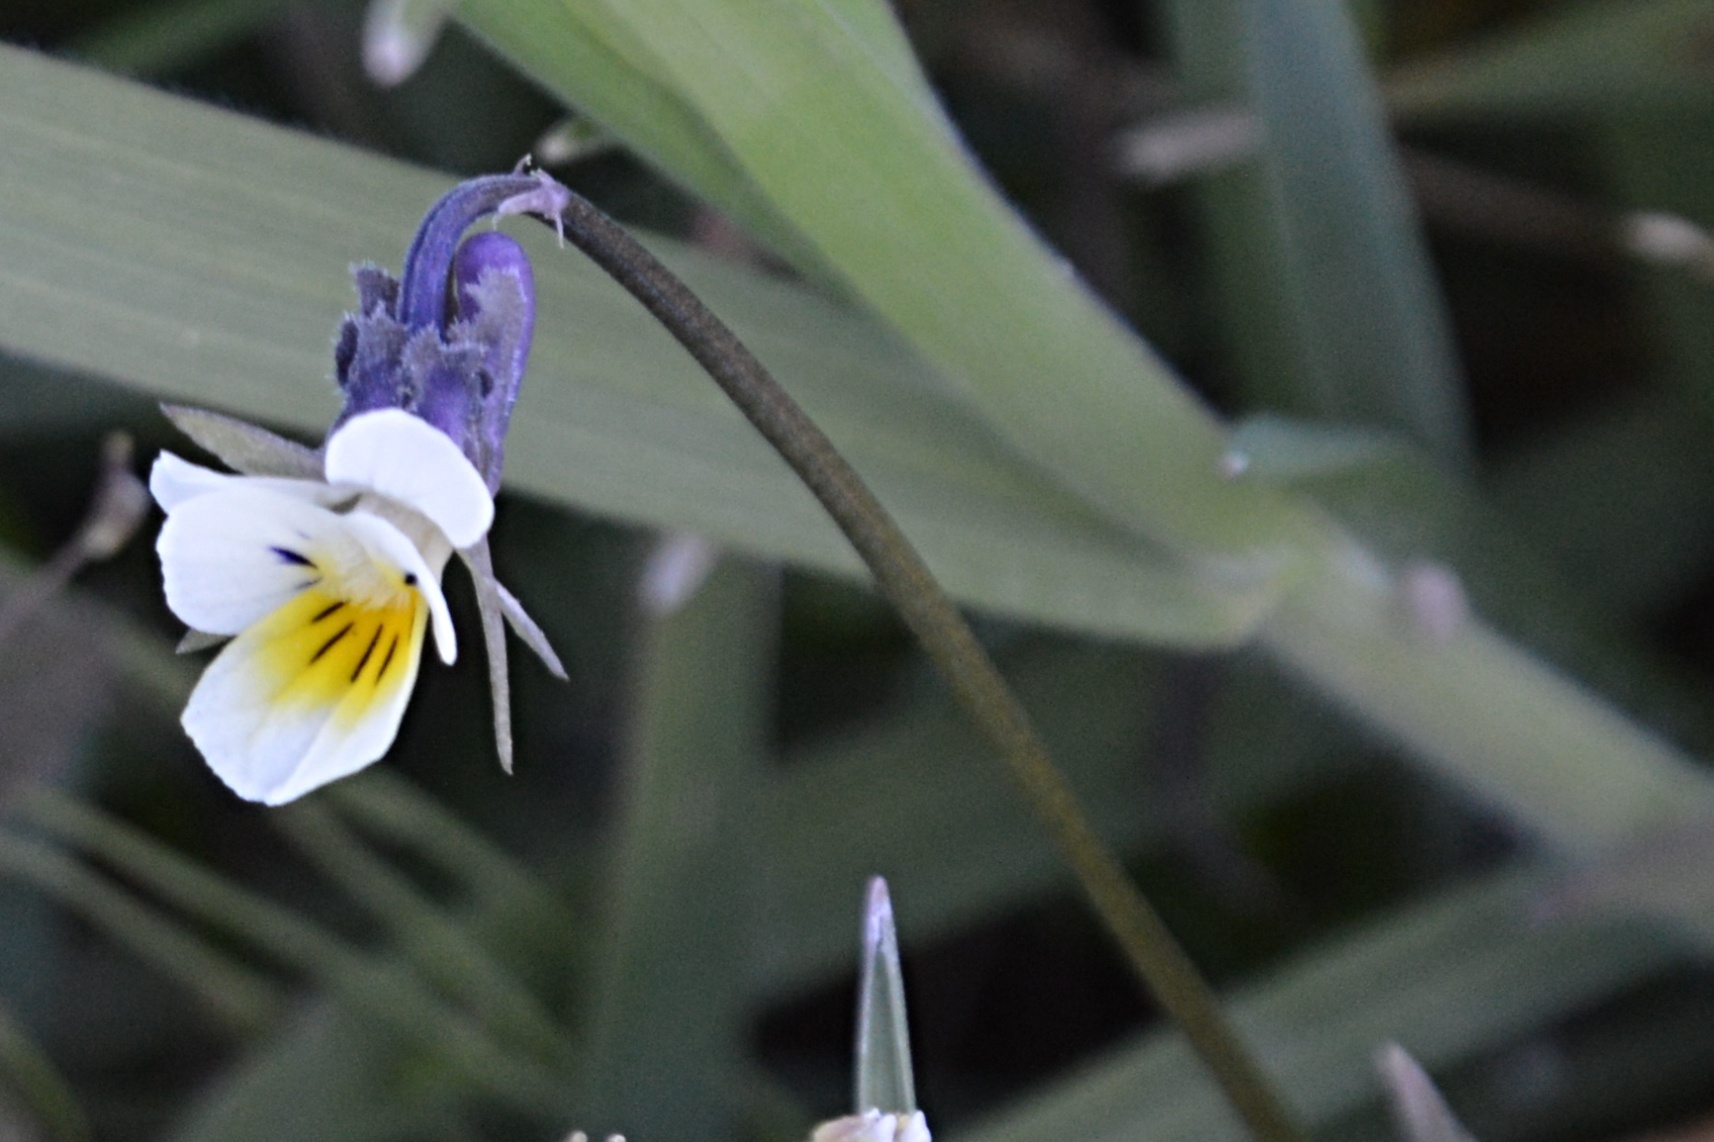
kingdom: Plantae
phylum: Tracheophyta
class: Magnoliopsida
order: Malpighiales
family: Violaceae
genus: Viola
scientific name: Viola arvensis
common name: Field pansy
